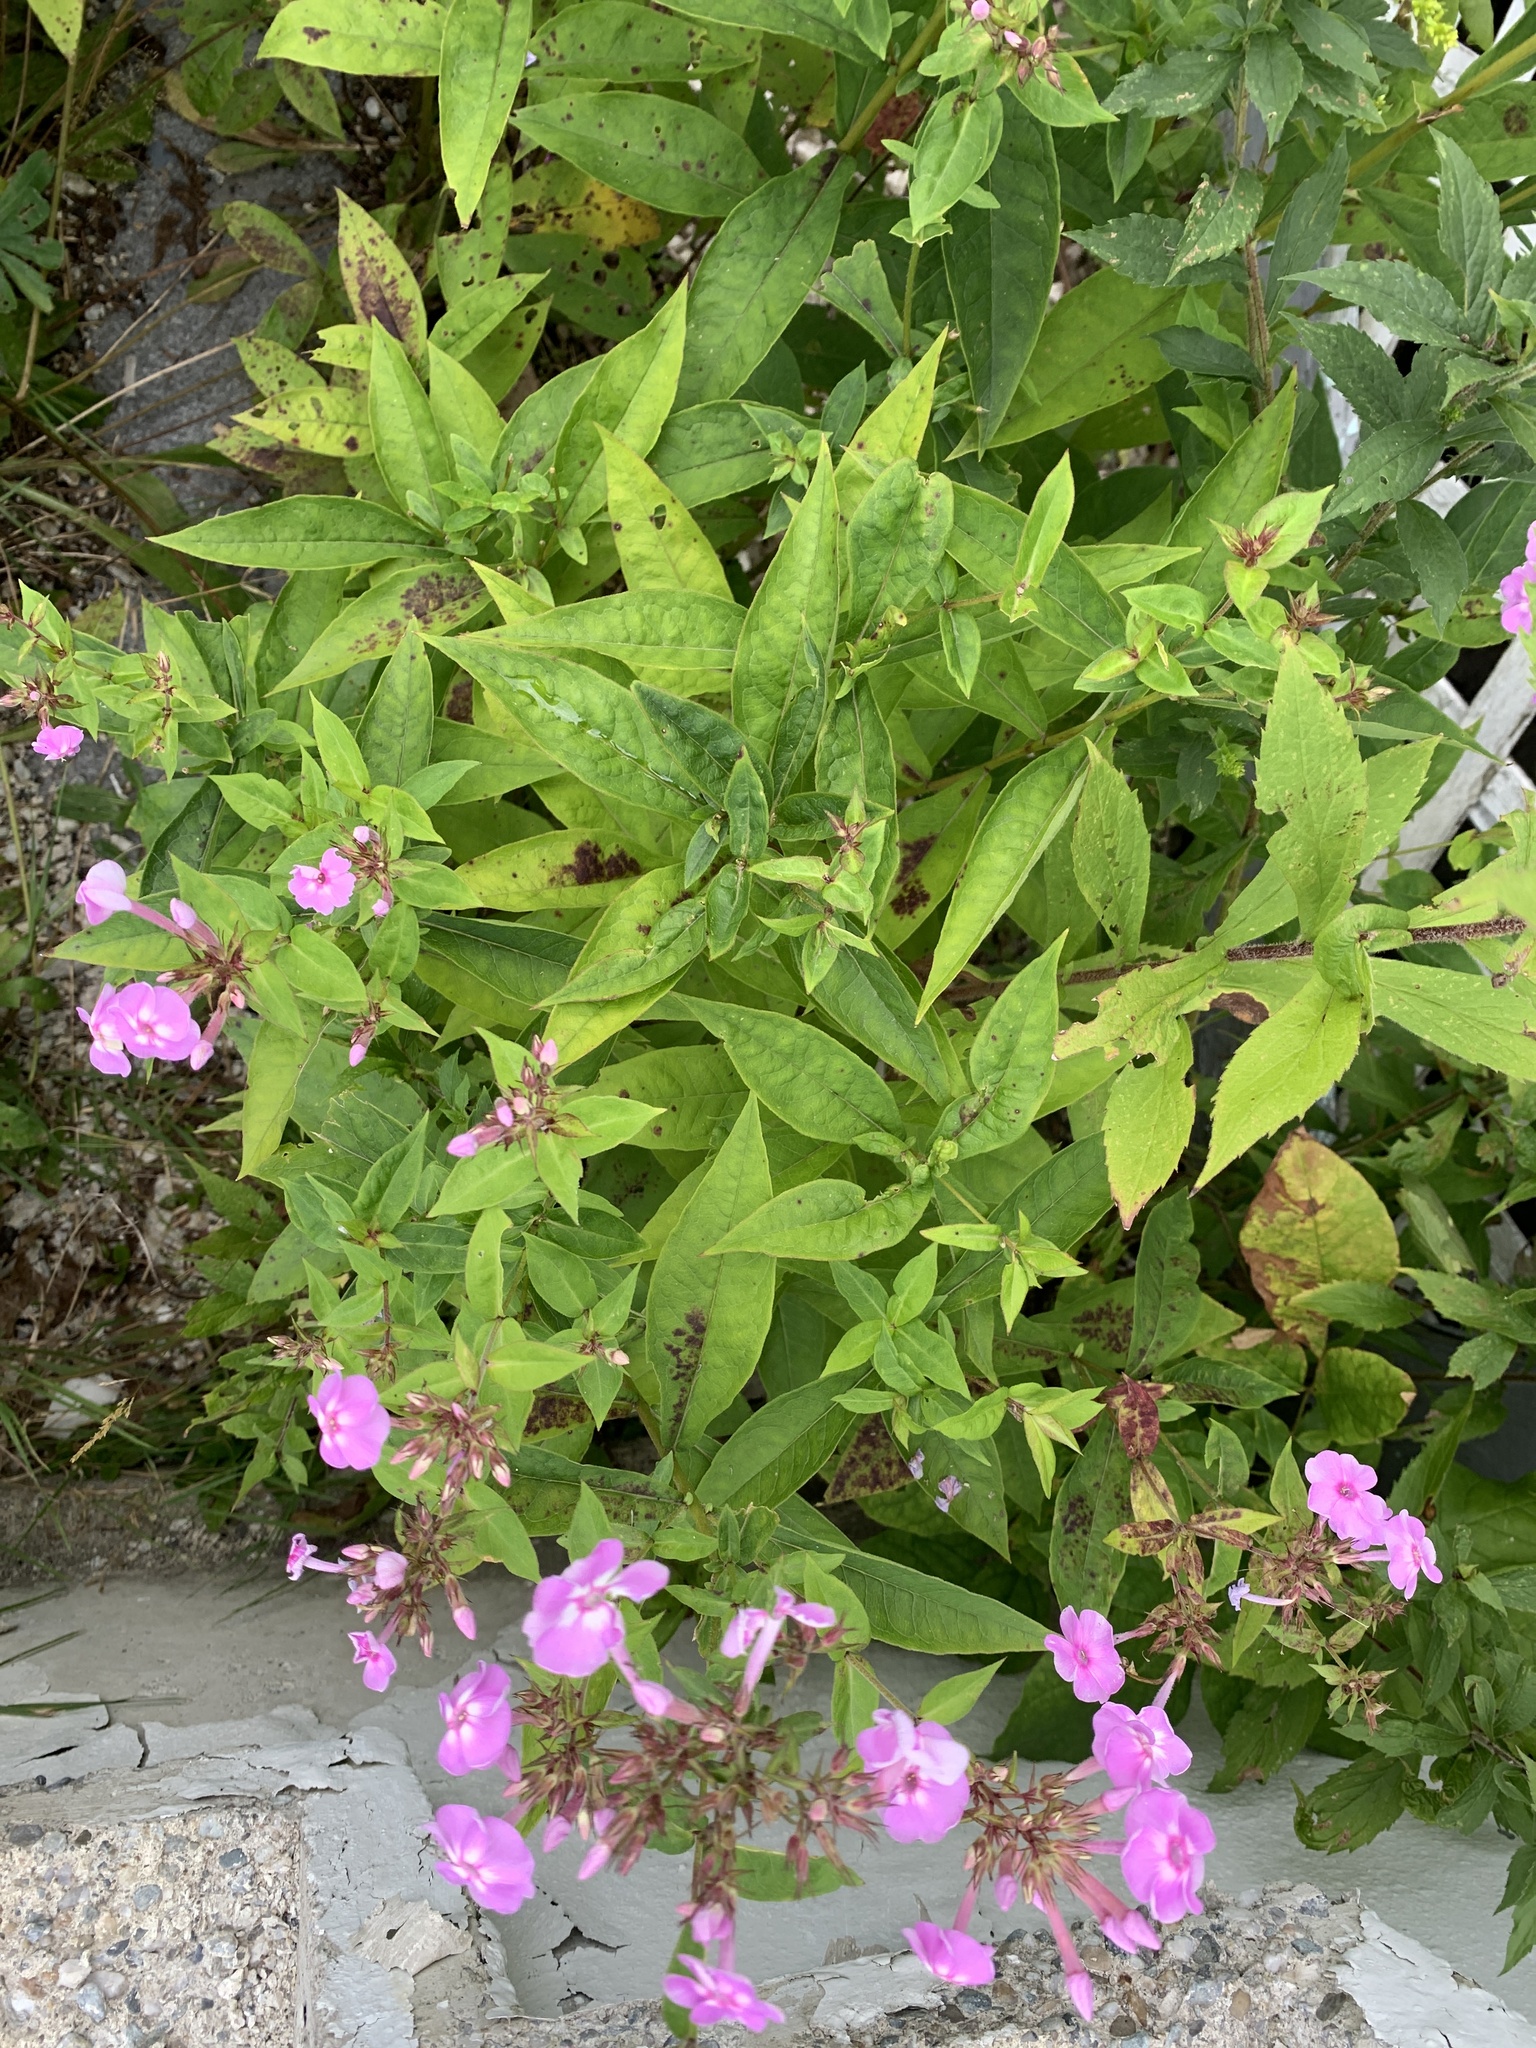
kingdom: Plantae
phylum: Tracheophyta
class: Magnoliopsida
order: Ericales
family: Polemoniaceae
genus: Phlox
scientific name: Phlox paniculata
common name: Fall phlox
